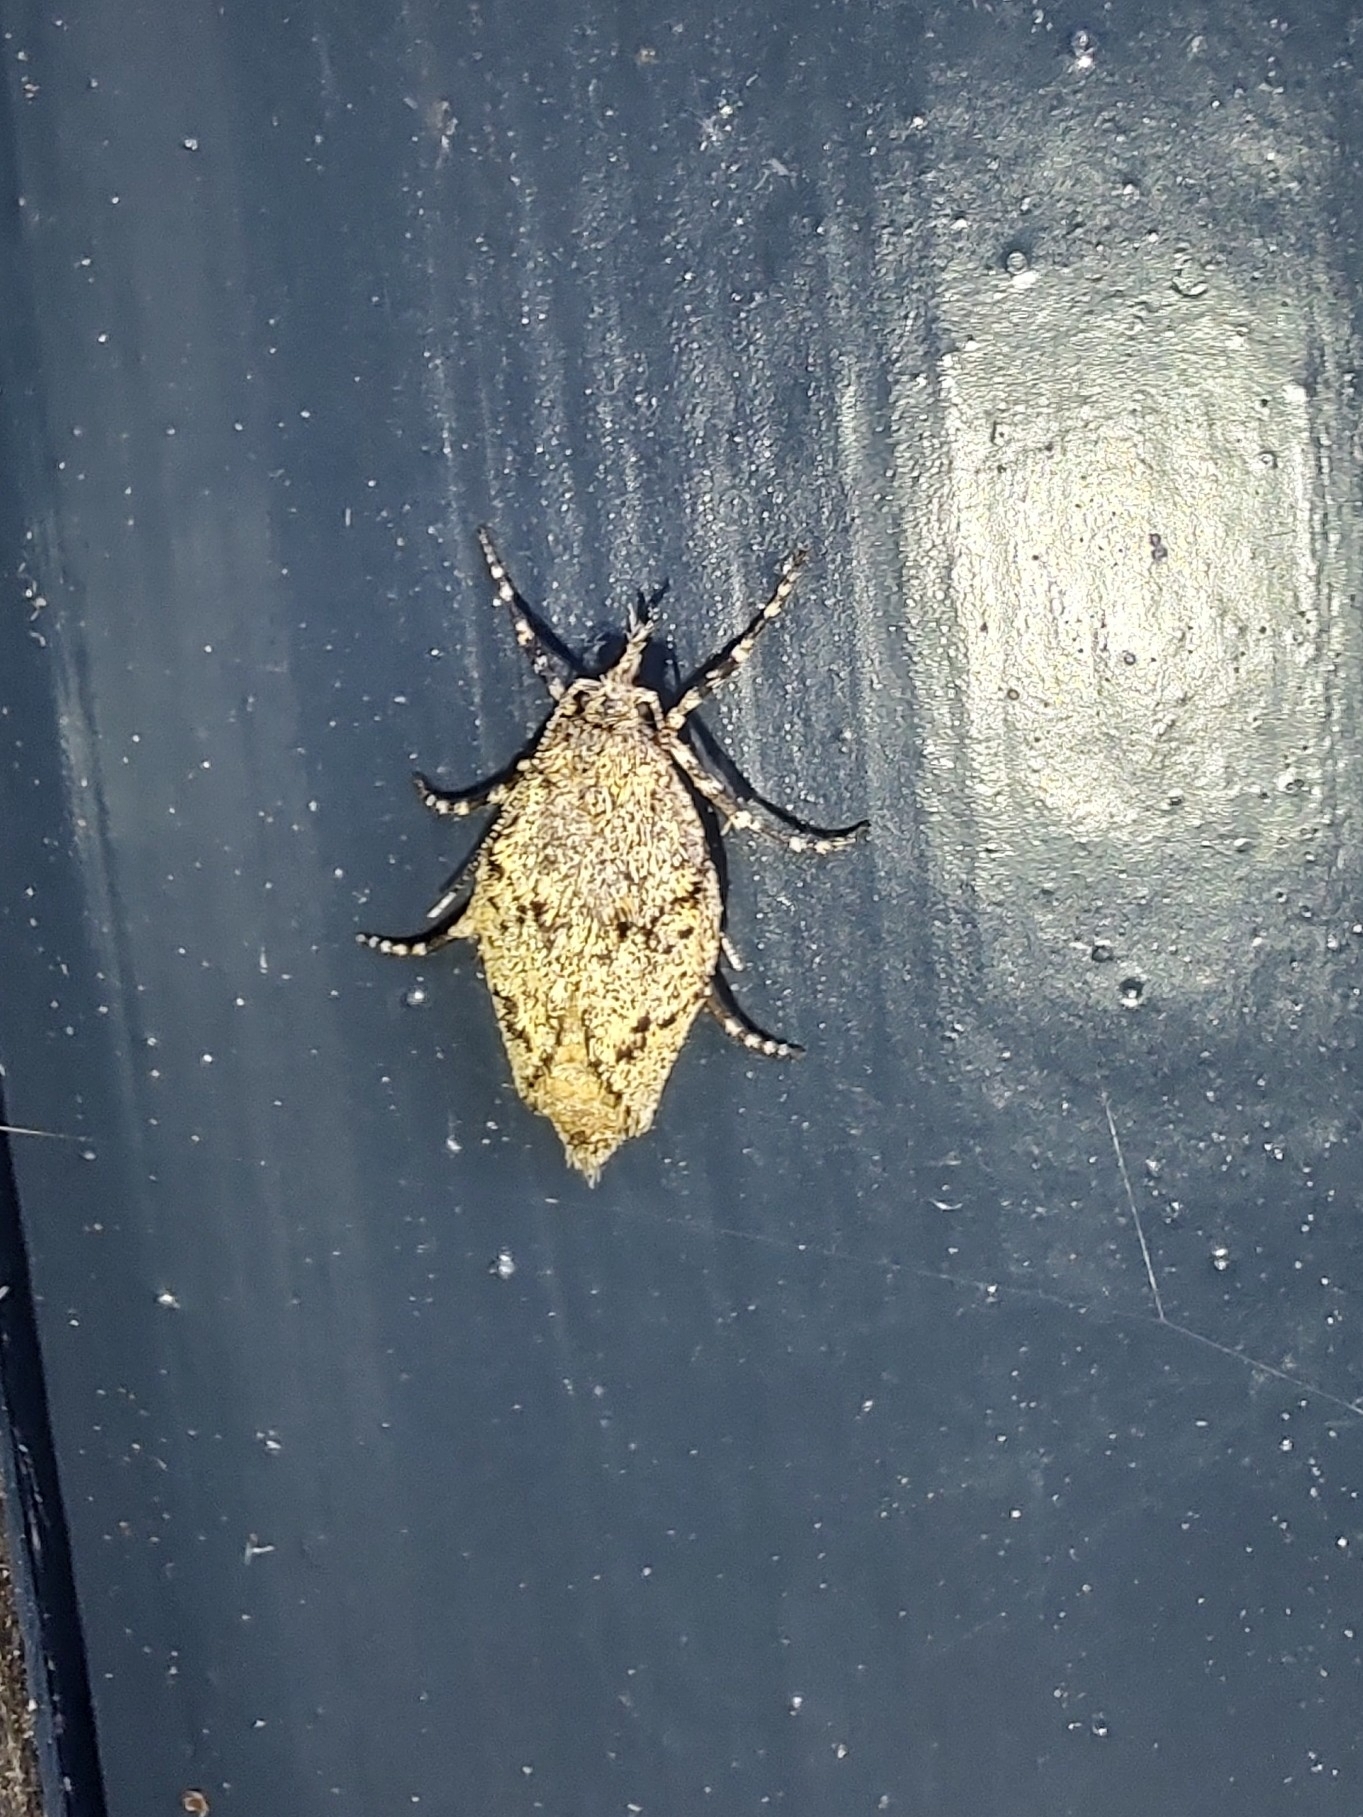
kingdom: Animalia
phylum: Arthropoda
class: Insecta
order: Lepidoptera
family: Lypusidae
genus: Diurnea
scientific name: Diurnea fagella
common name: March tubic
